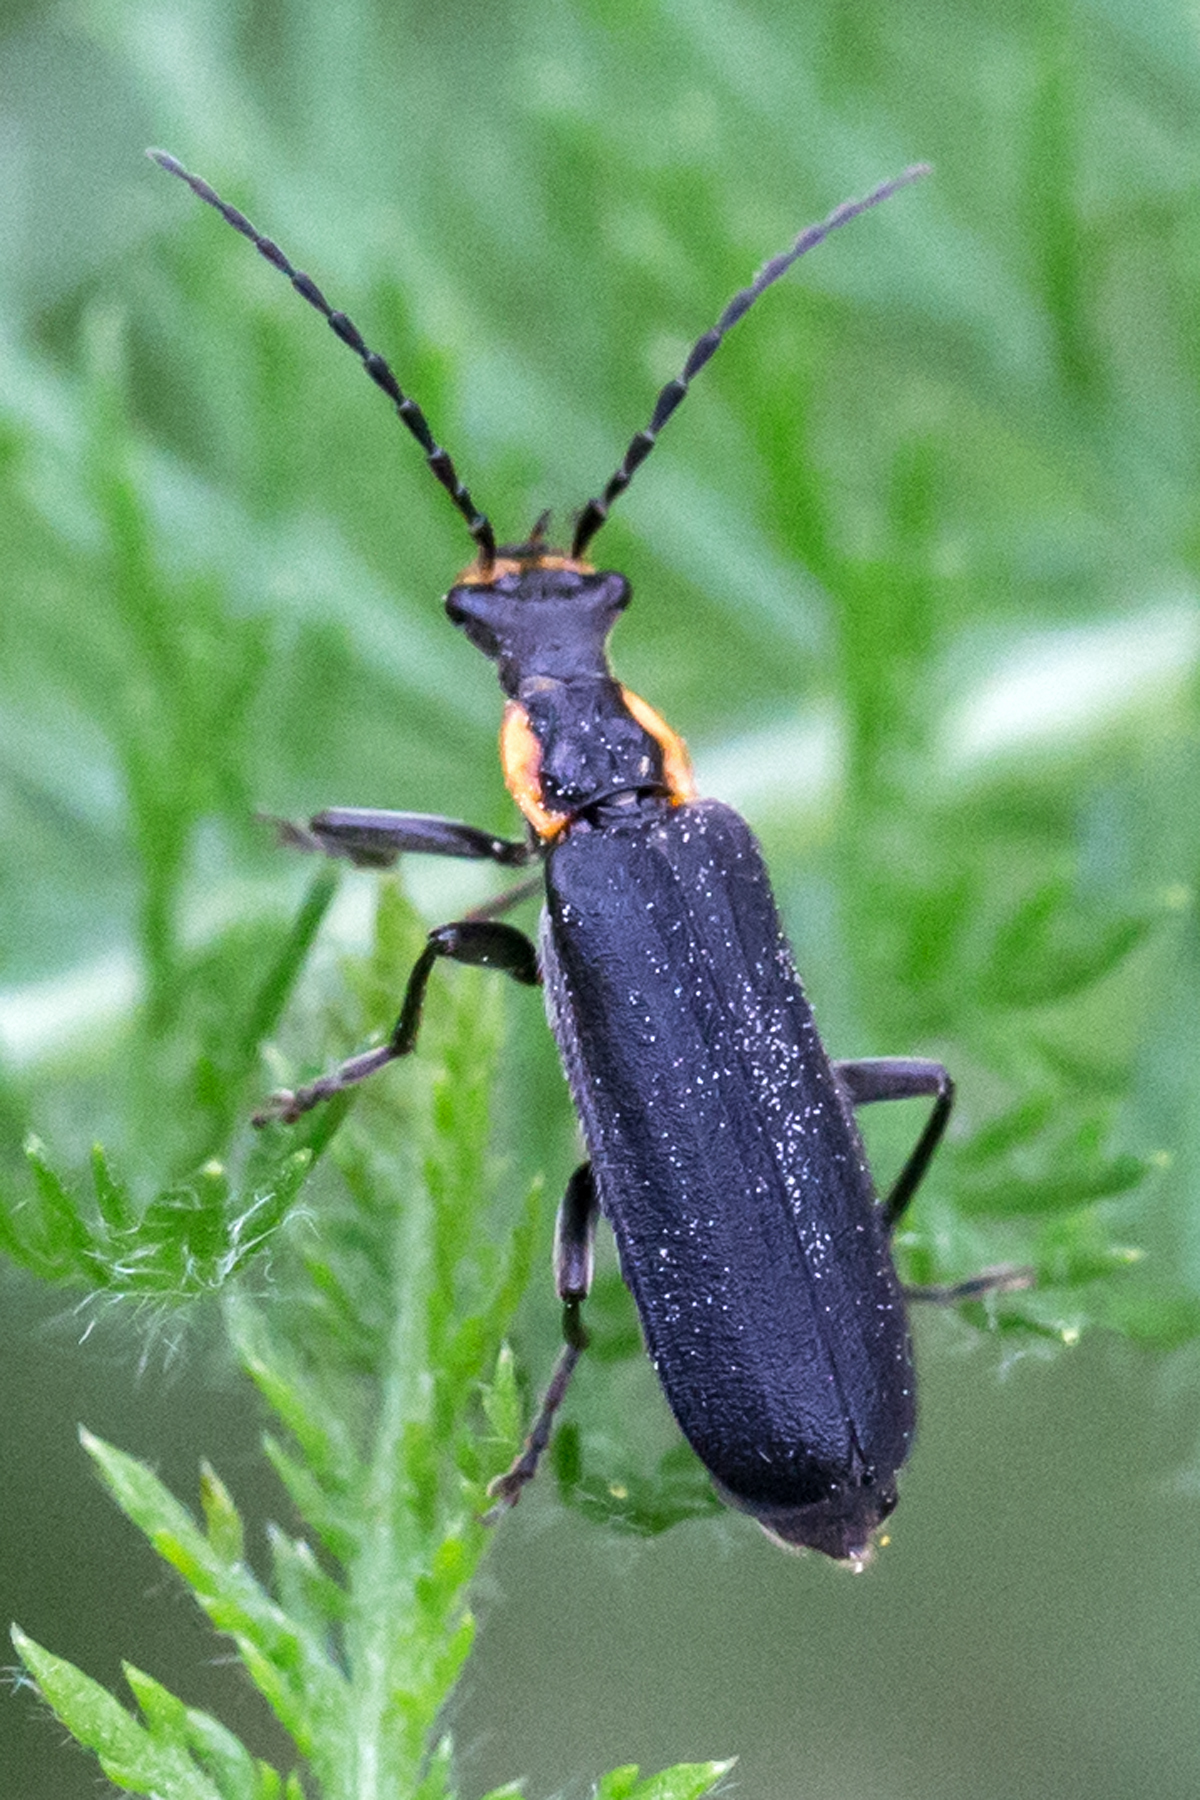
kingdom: Animalia
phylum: Arthropoda
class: Insecta
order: Coleoptera
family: Cantharidae
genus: Podabrus
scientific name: Podabrus rugosulus
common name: Wrinkled soldier beetle
